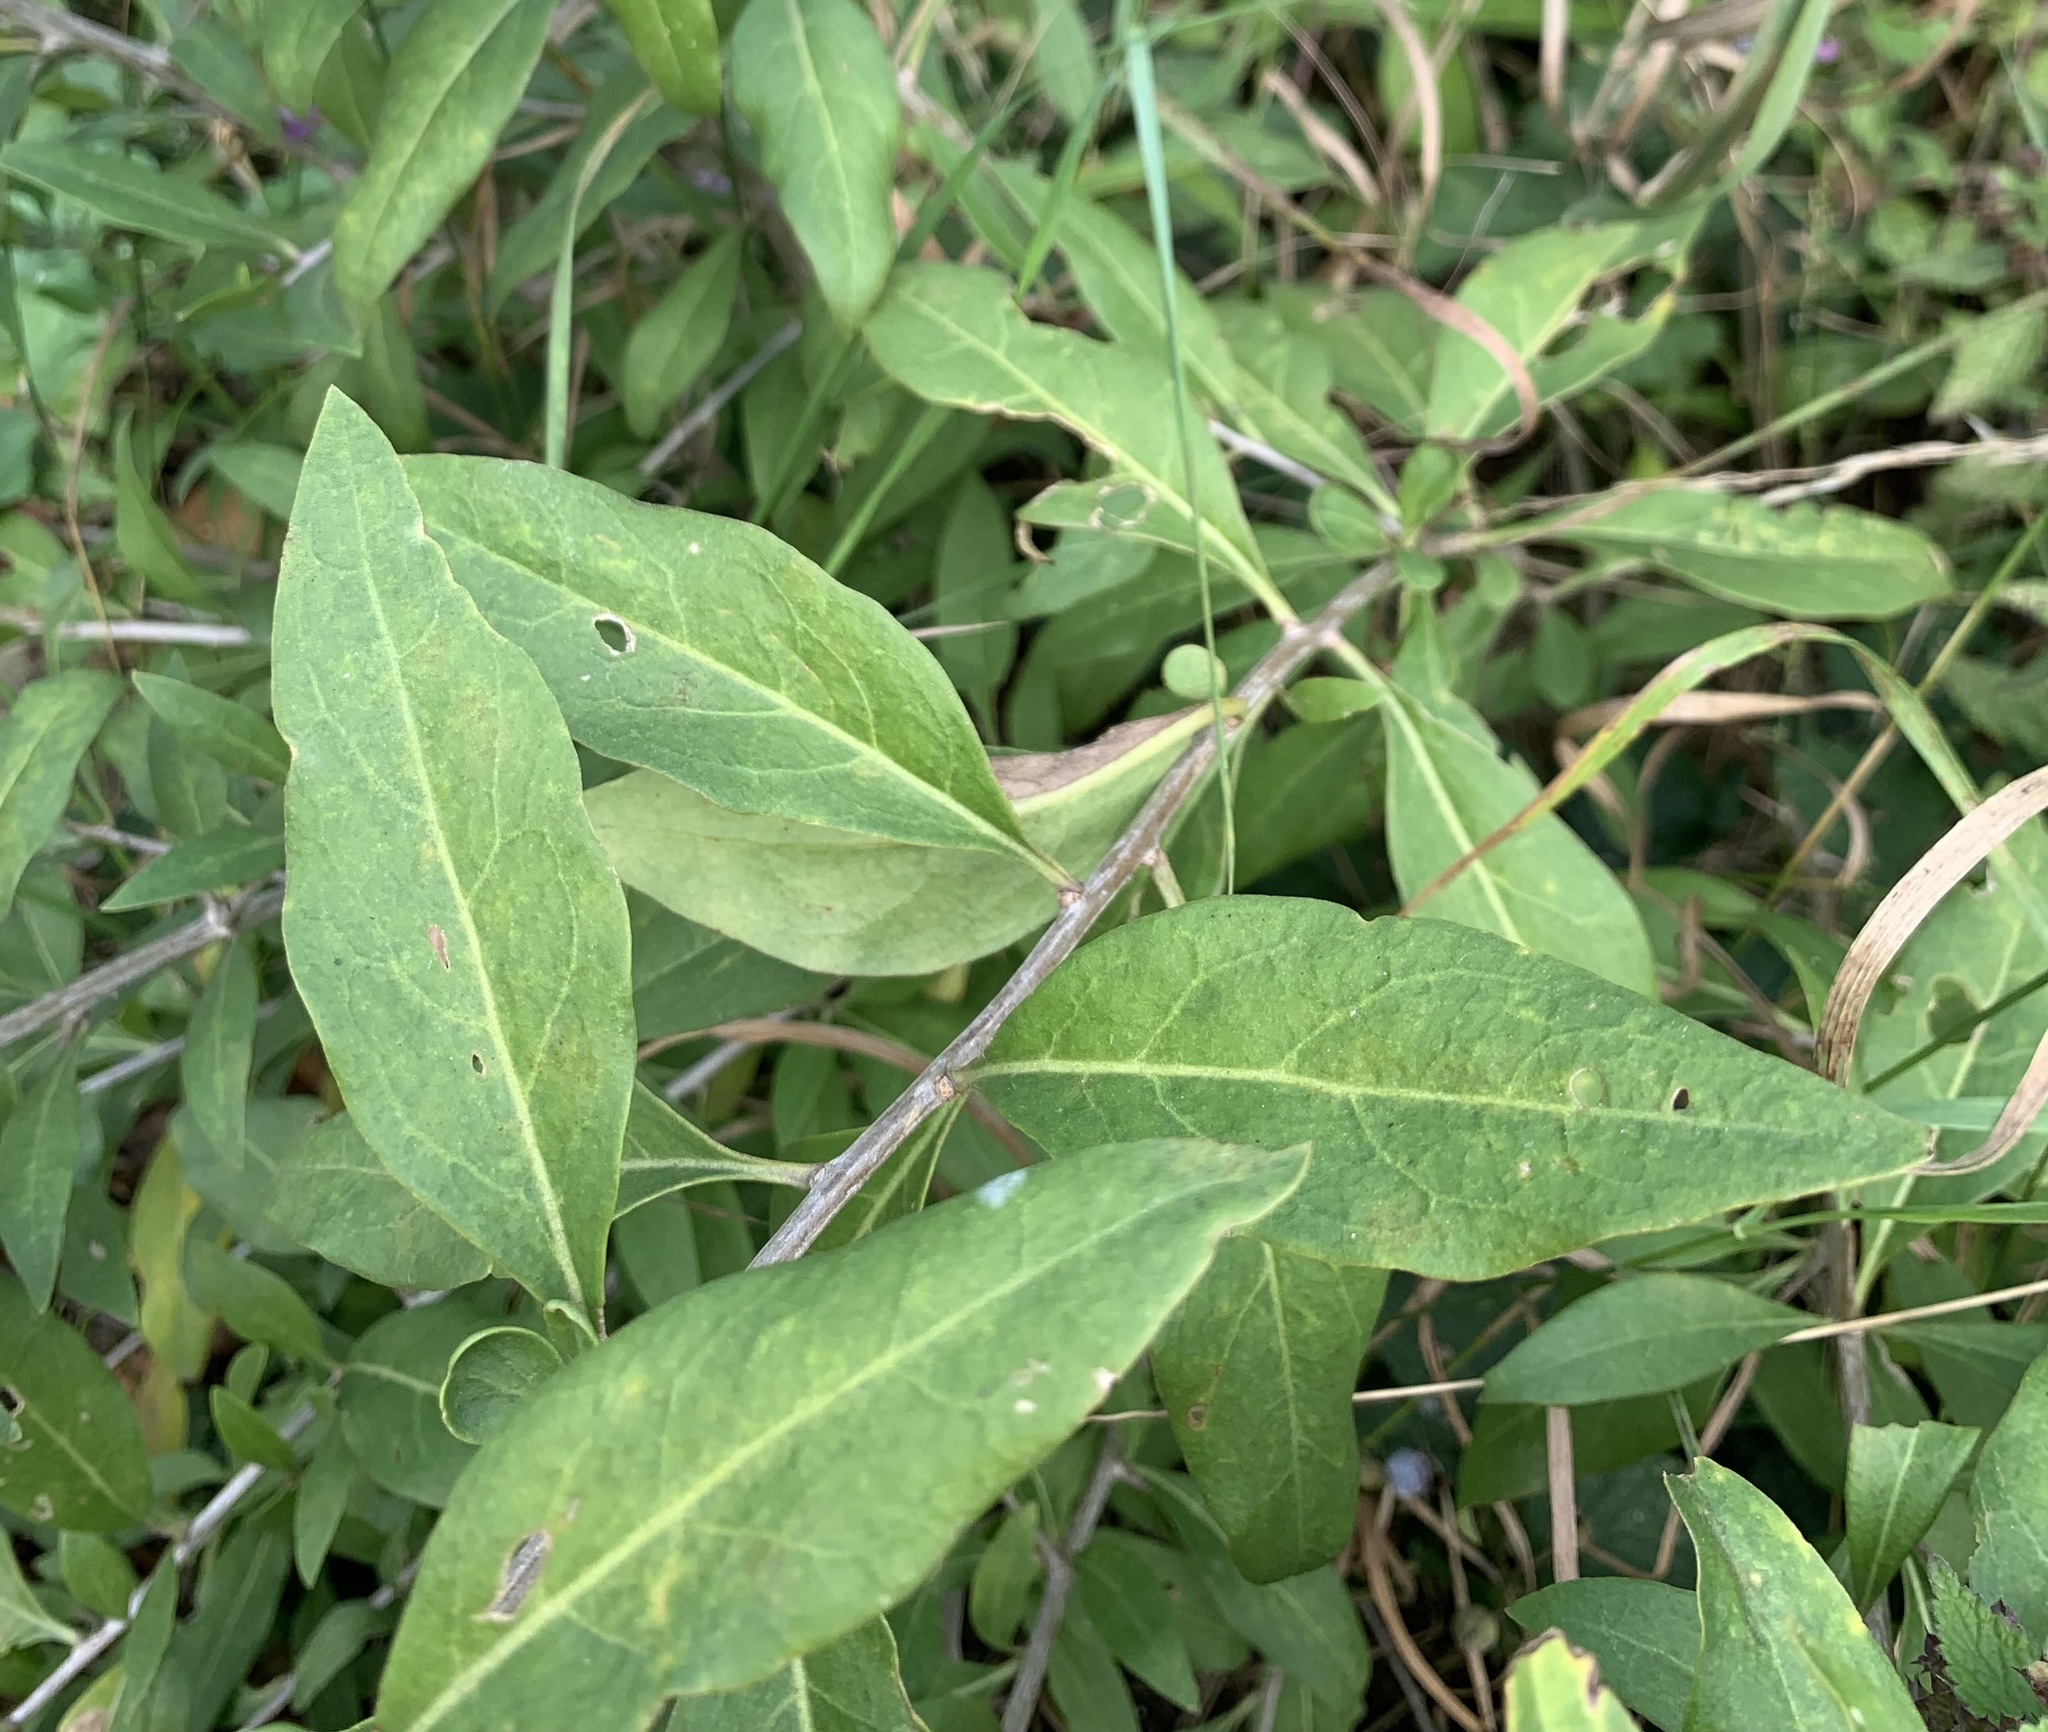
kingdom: Plantae
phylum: Tracheophyta
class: Magnoliopsida
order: Solanales
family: Solanaceae
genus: Lycium
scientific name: Lycium barbarum
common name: Duke of argyll's teaplant
